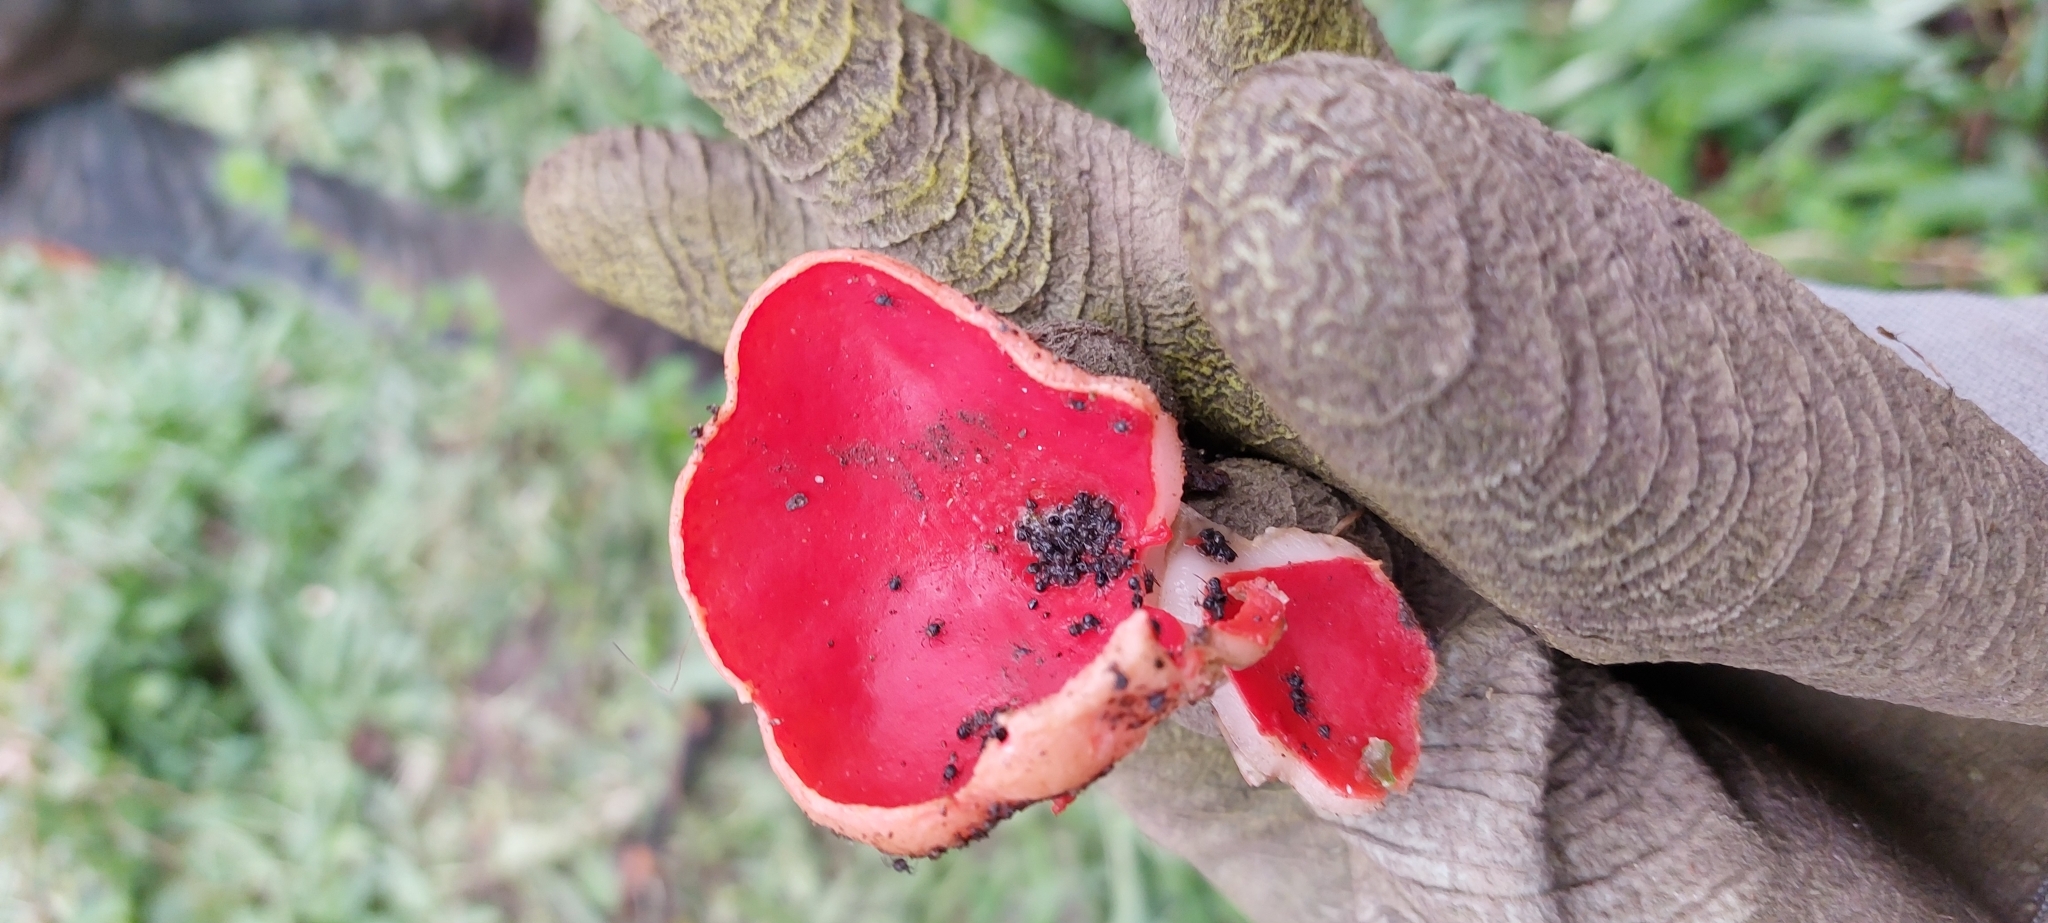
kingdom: Fungi
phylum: Ascomycota
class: Pezizomycetes
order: Pezizales
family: Sarcoscyphaceae
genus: Sarcoscypha
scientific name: Sarcoscypha
